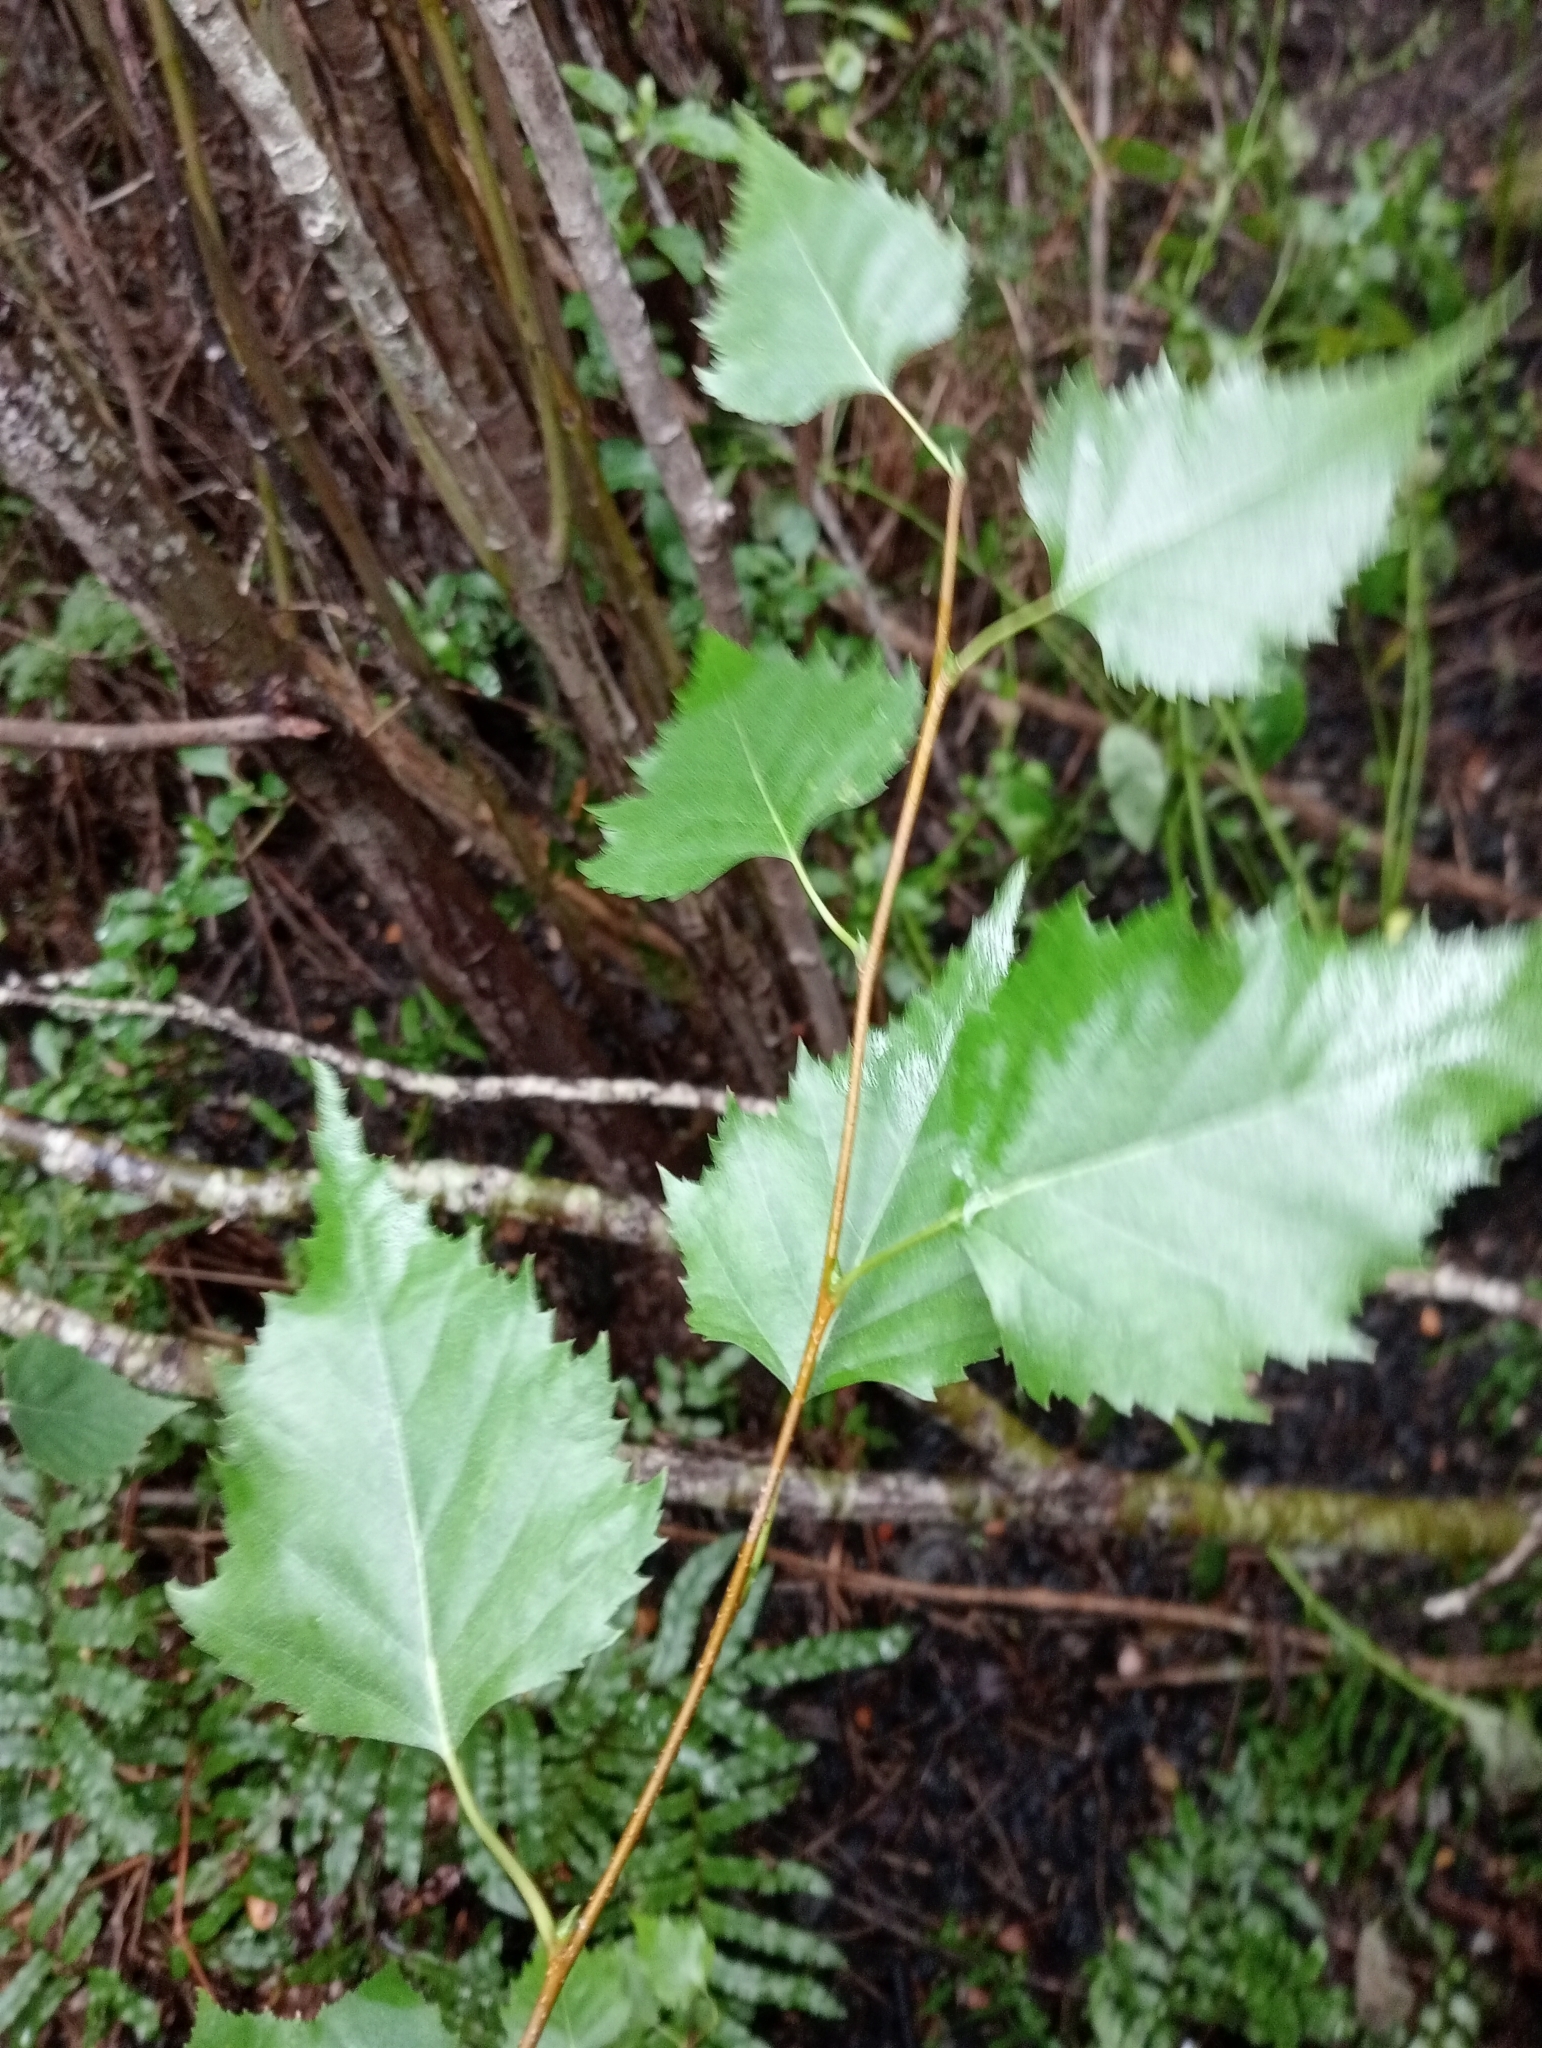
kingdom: Plantae
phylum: Tracheophyta
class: Magnoliopsida
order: Fagales
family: Betulaceae
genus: Betula
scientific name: Betula pendula
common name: Silver birch
